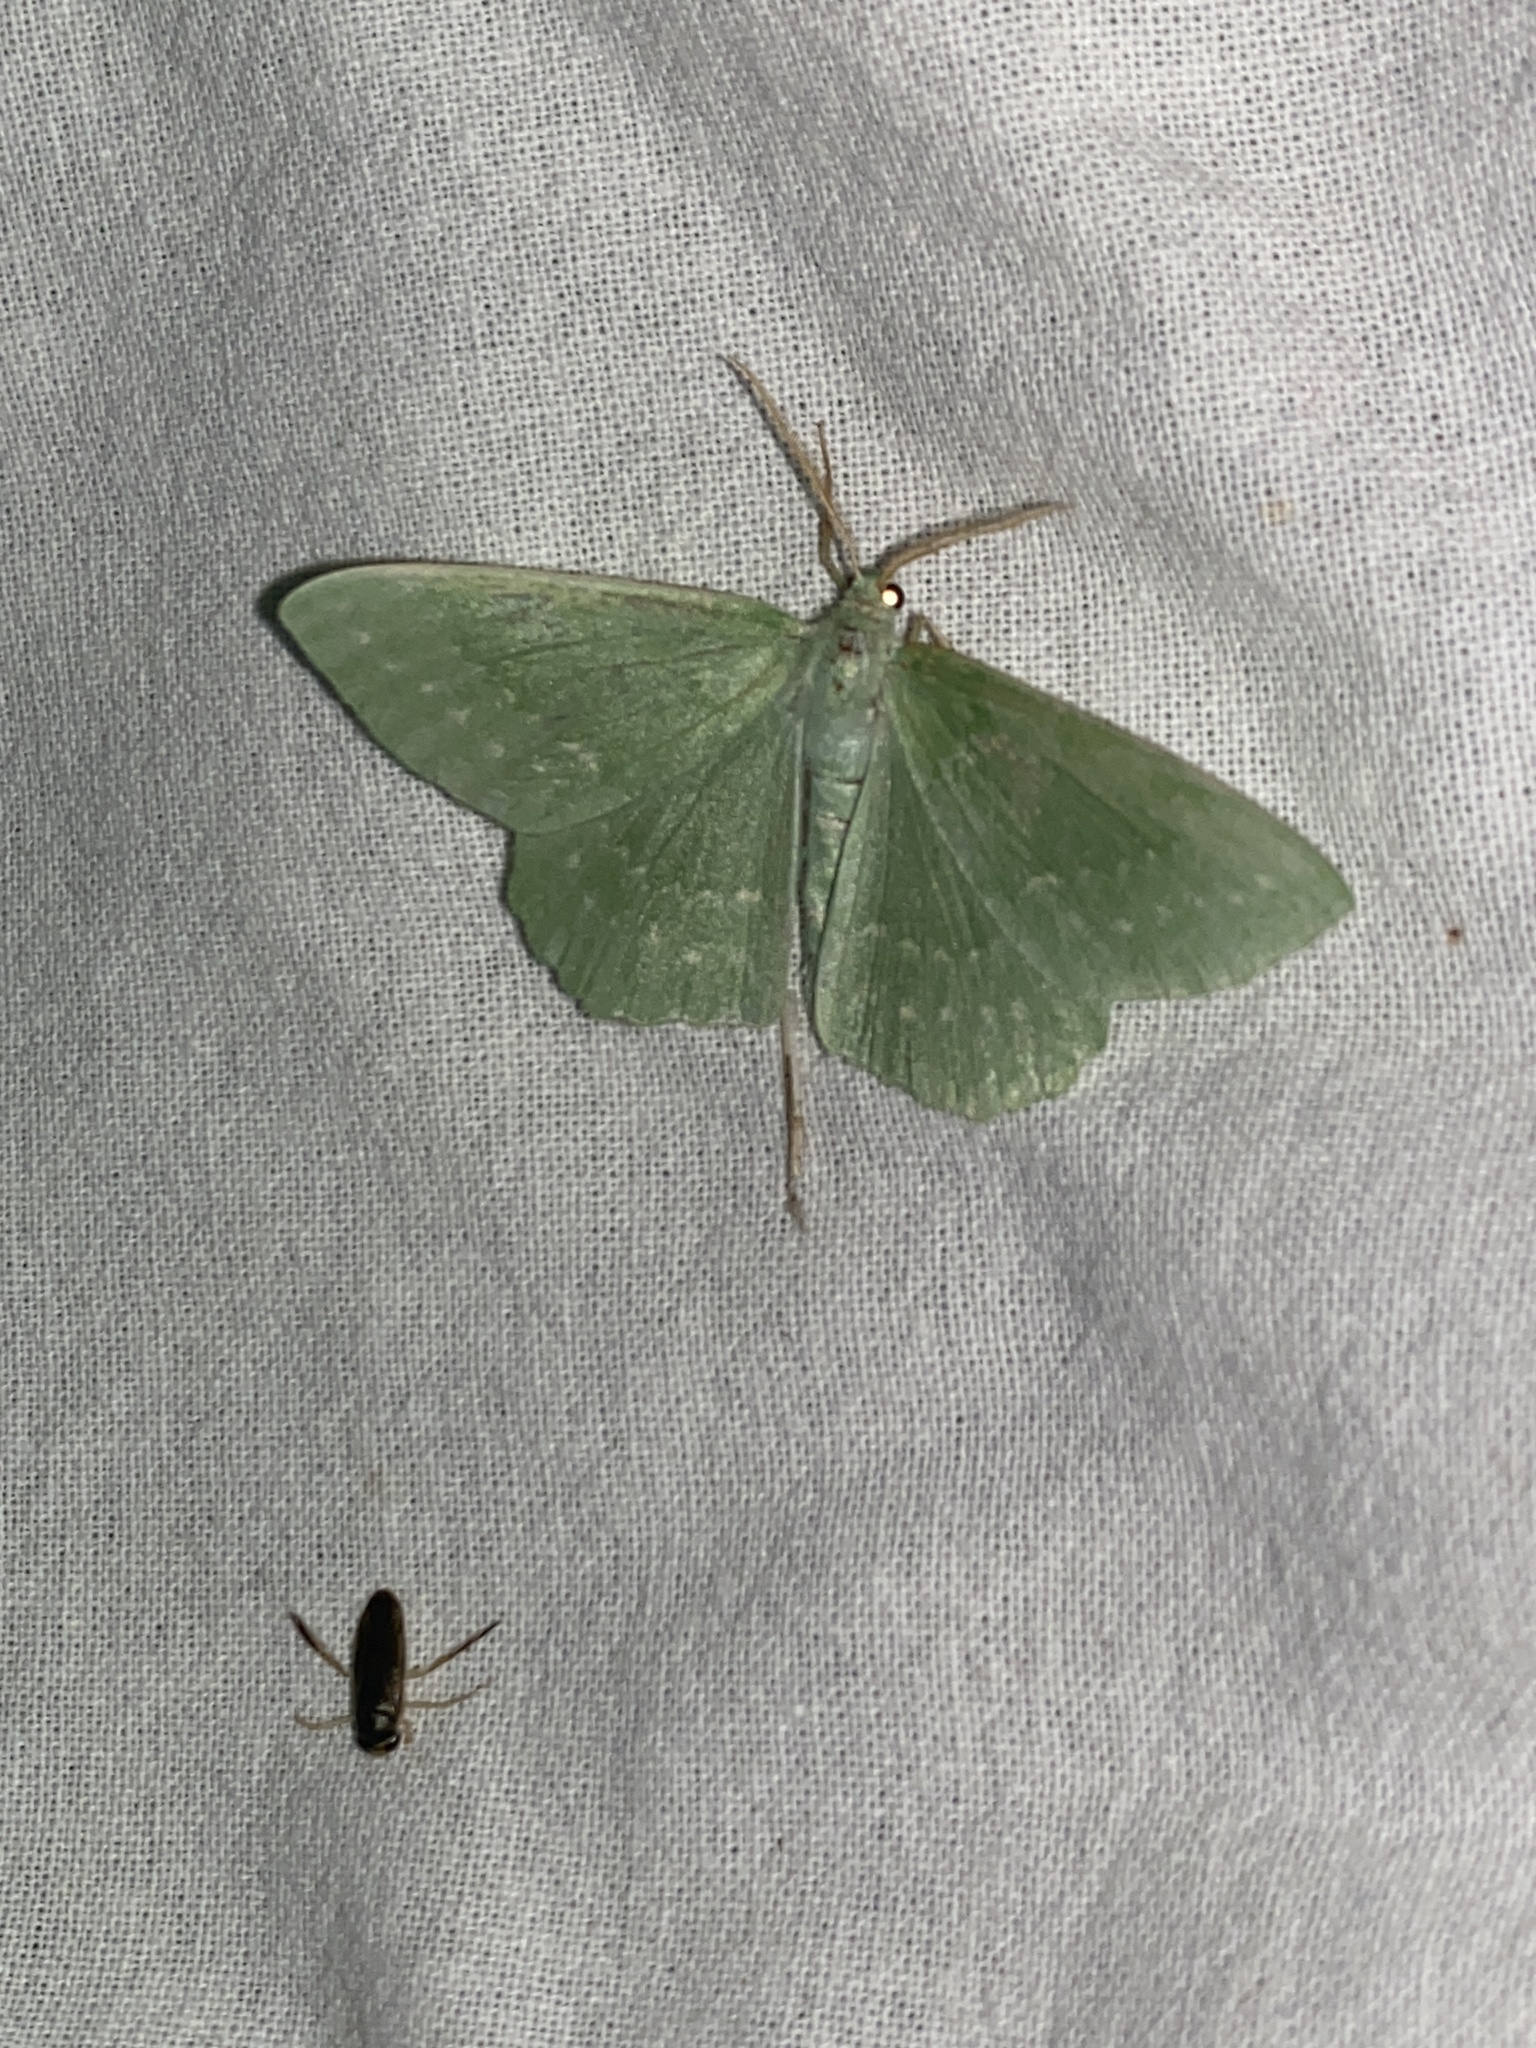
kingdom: Animalia
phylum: Arthropoda
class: Insecta
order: Lepidoptera
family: Geometridae
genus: Geometra
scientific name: Geometra papilionaria
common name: Large emerald
